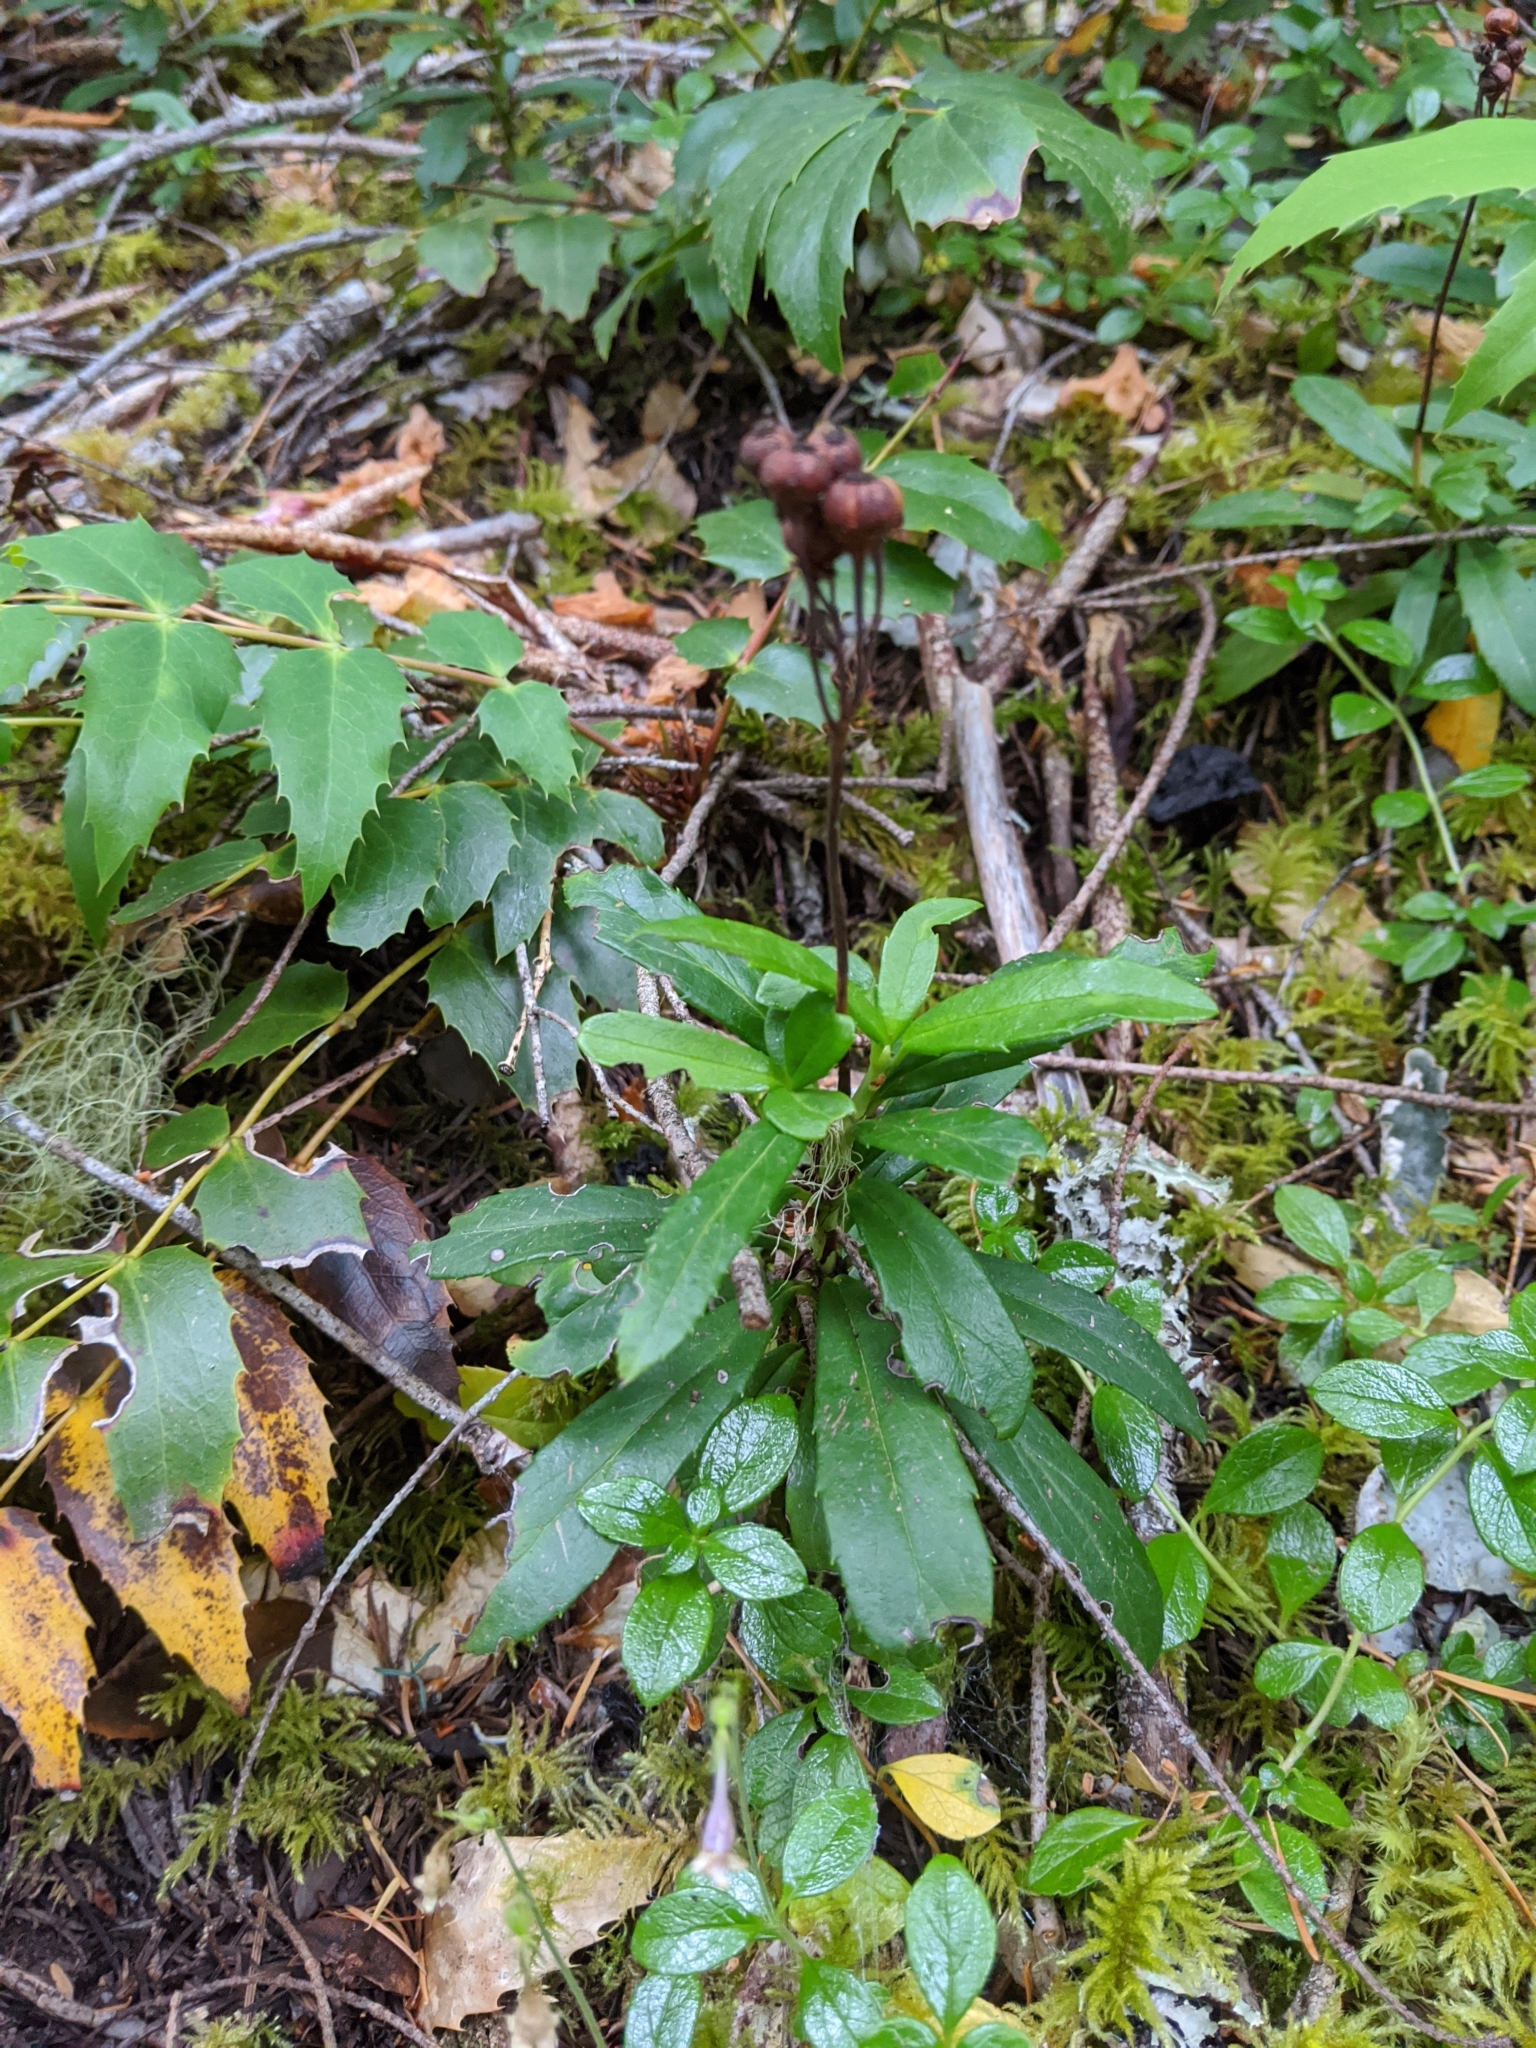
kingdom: Plantae
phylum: Tracheophyta
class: Magnoliopsida
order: Ericales
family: Ericaceae
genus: Chimaphila
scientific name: Chimaphila umbellata
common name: Pipsissewa
